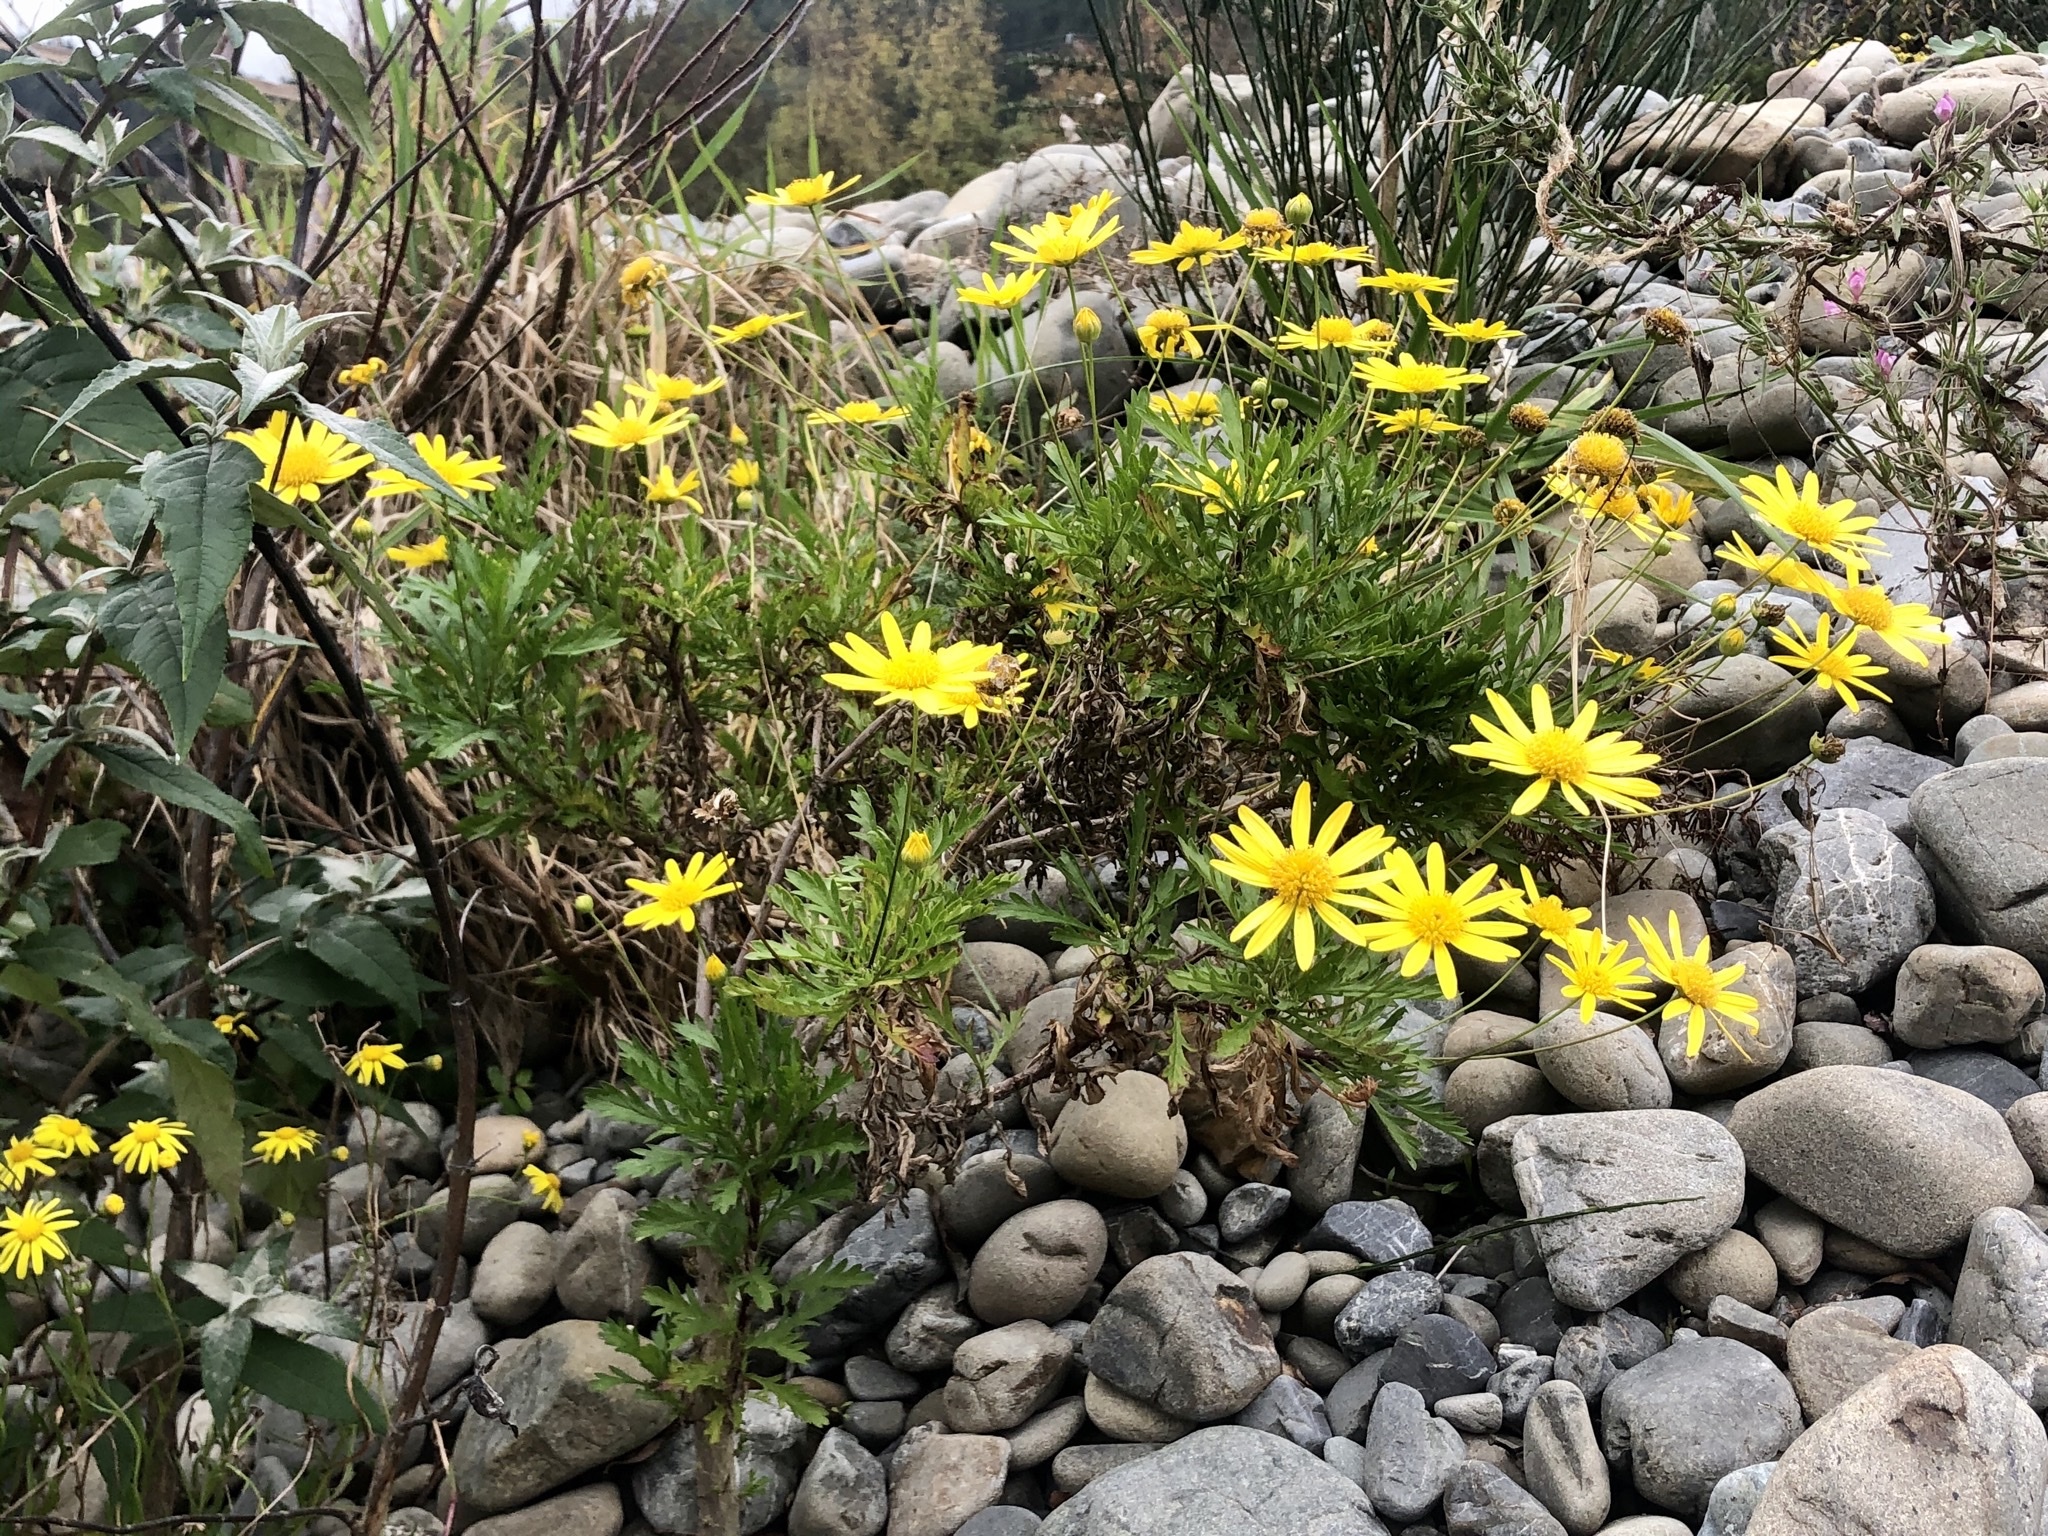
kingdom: Plantae
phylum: Tracheophyta
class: Magnoliopsida
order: Asterales
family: Asteraceae
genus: Euryops
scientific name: Euryops chrysanthemoides
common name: Bull's eye
